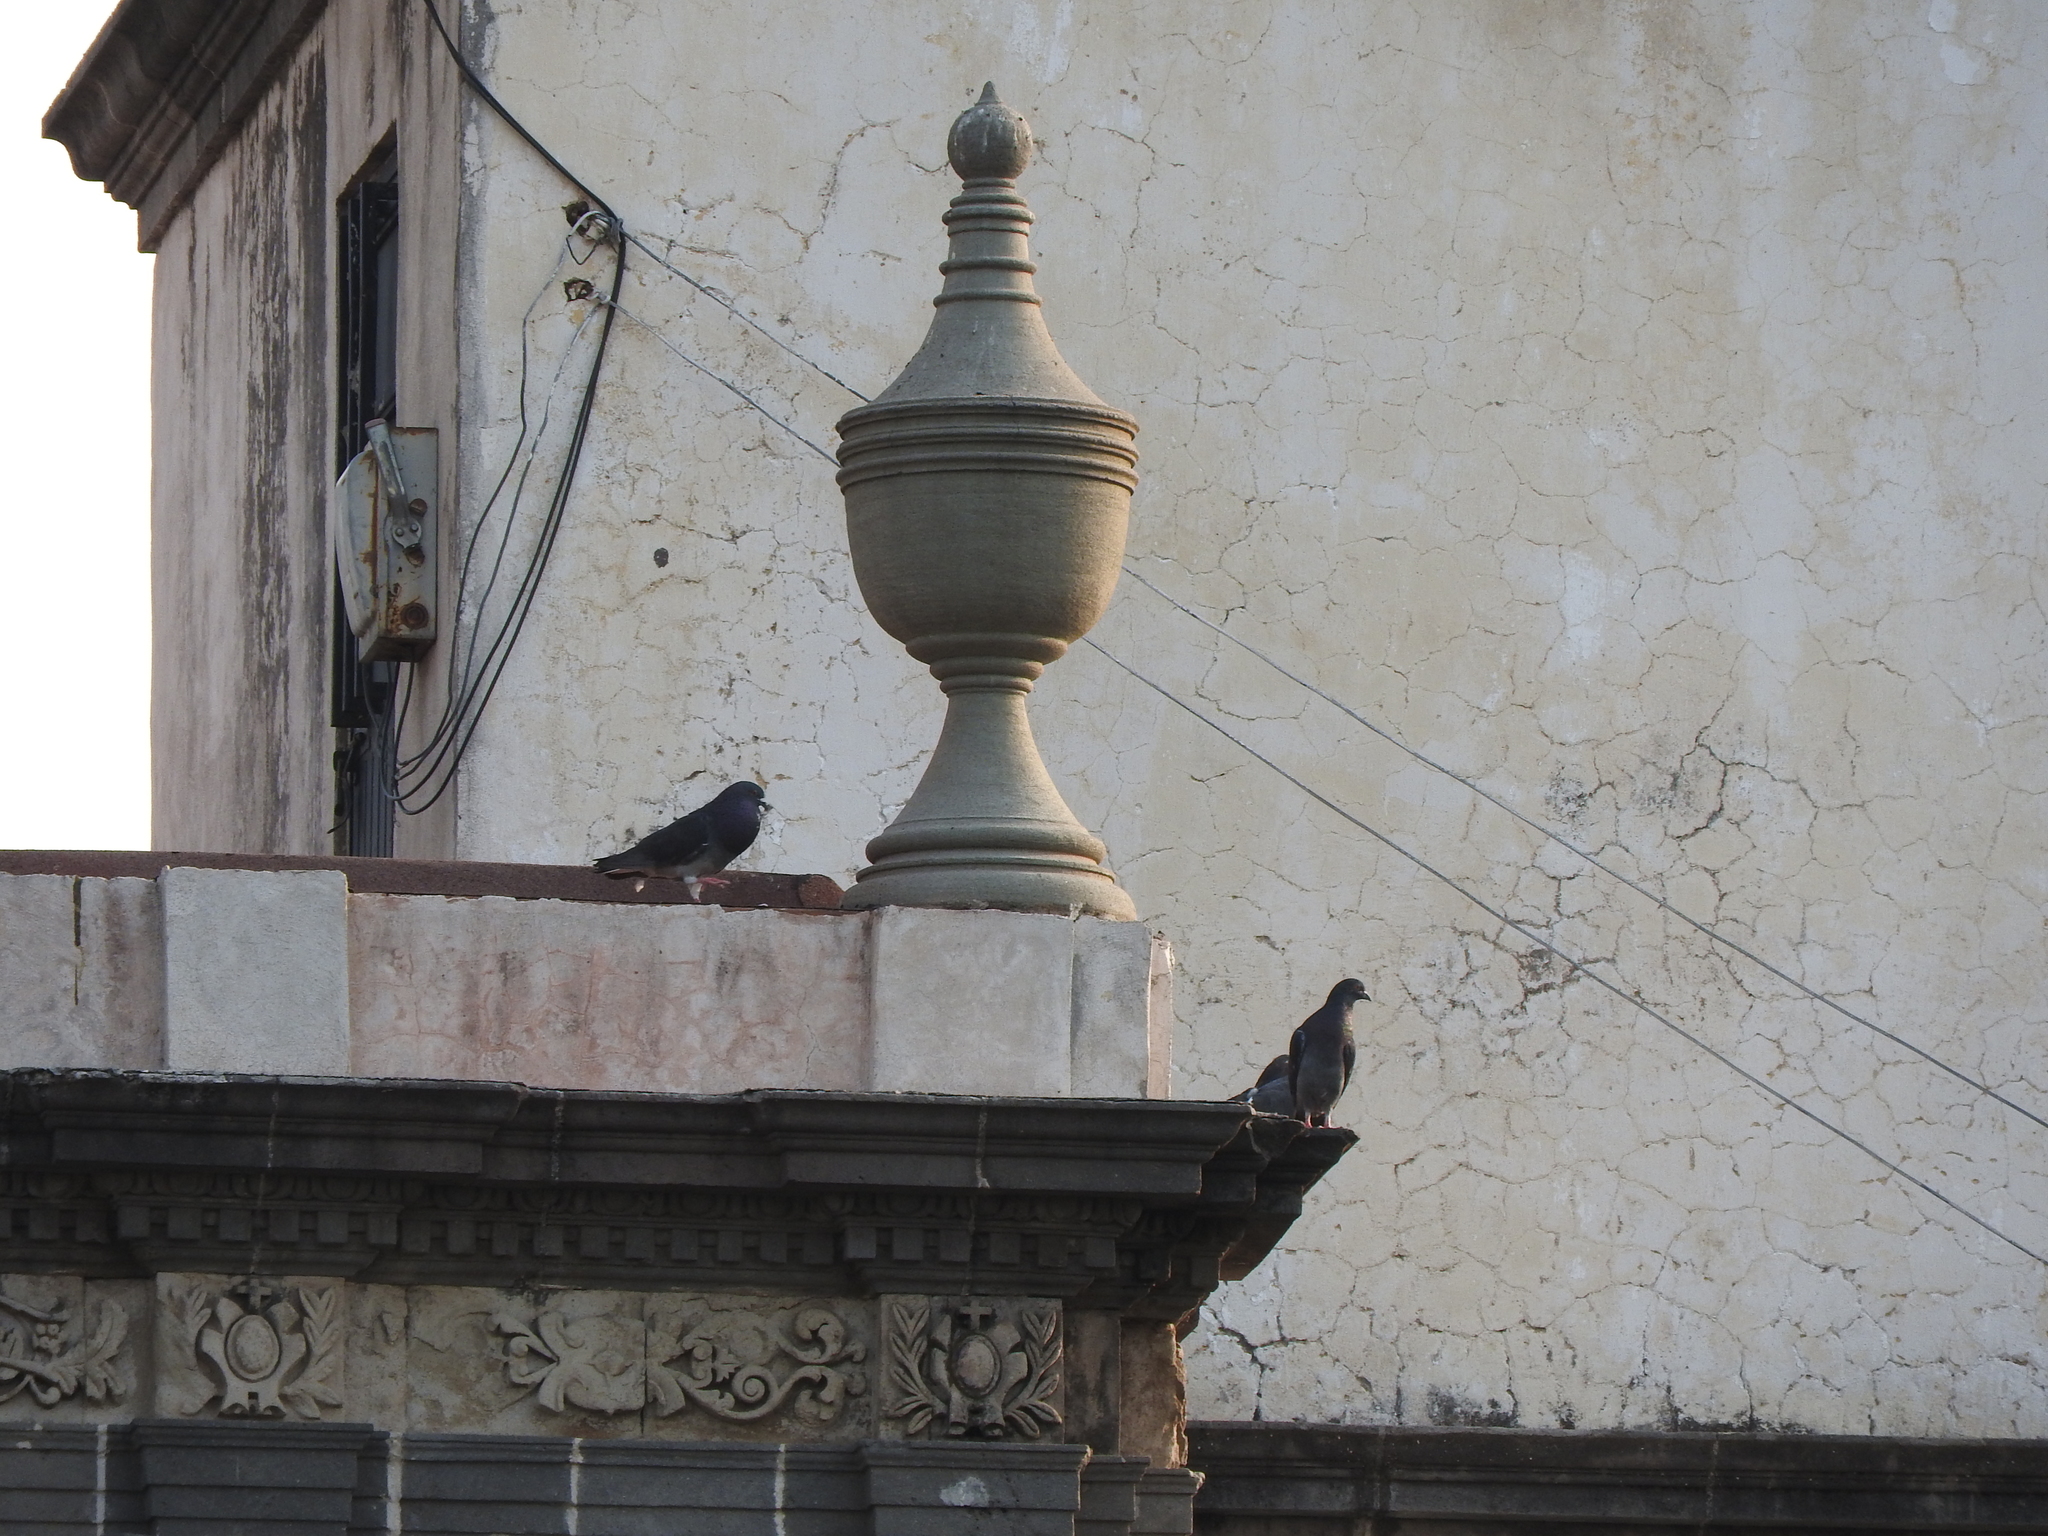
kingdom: Animalia
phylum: Chordata
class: Aves
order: Columbiformes
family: Columbidae
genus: Columba
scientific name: Columba livia
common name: Rock pigeon
